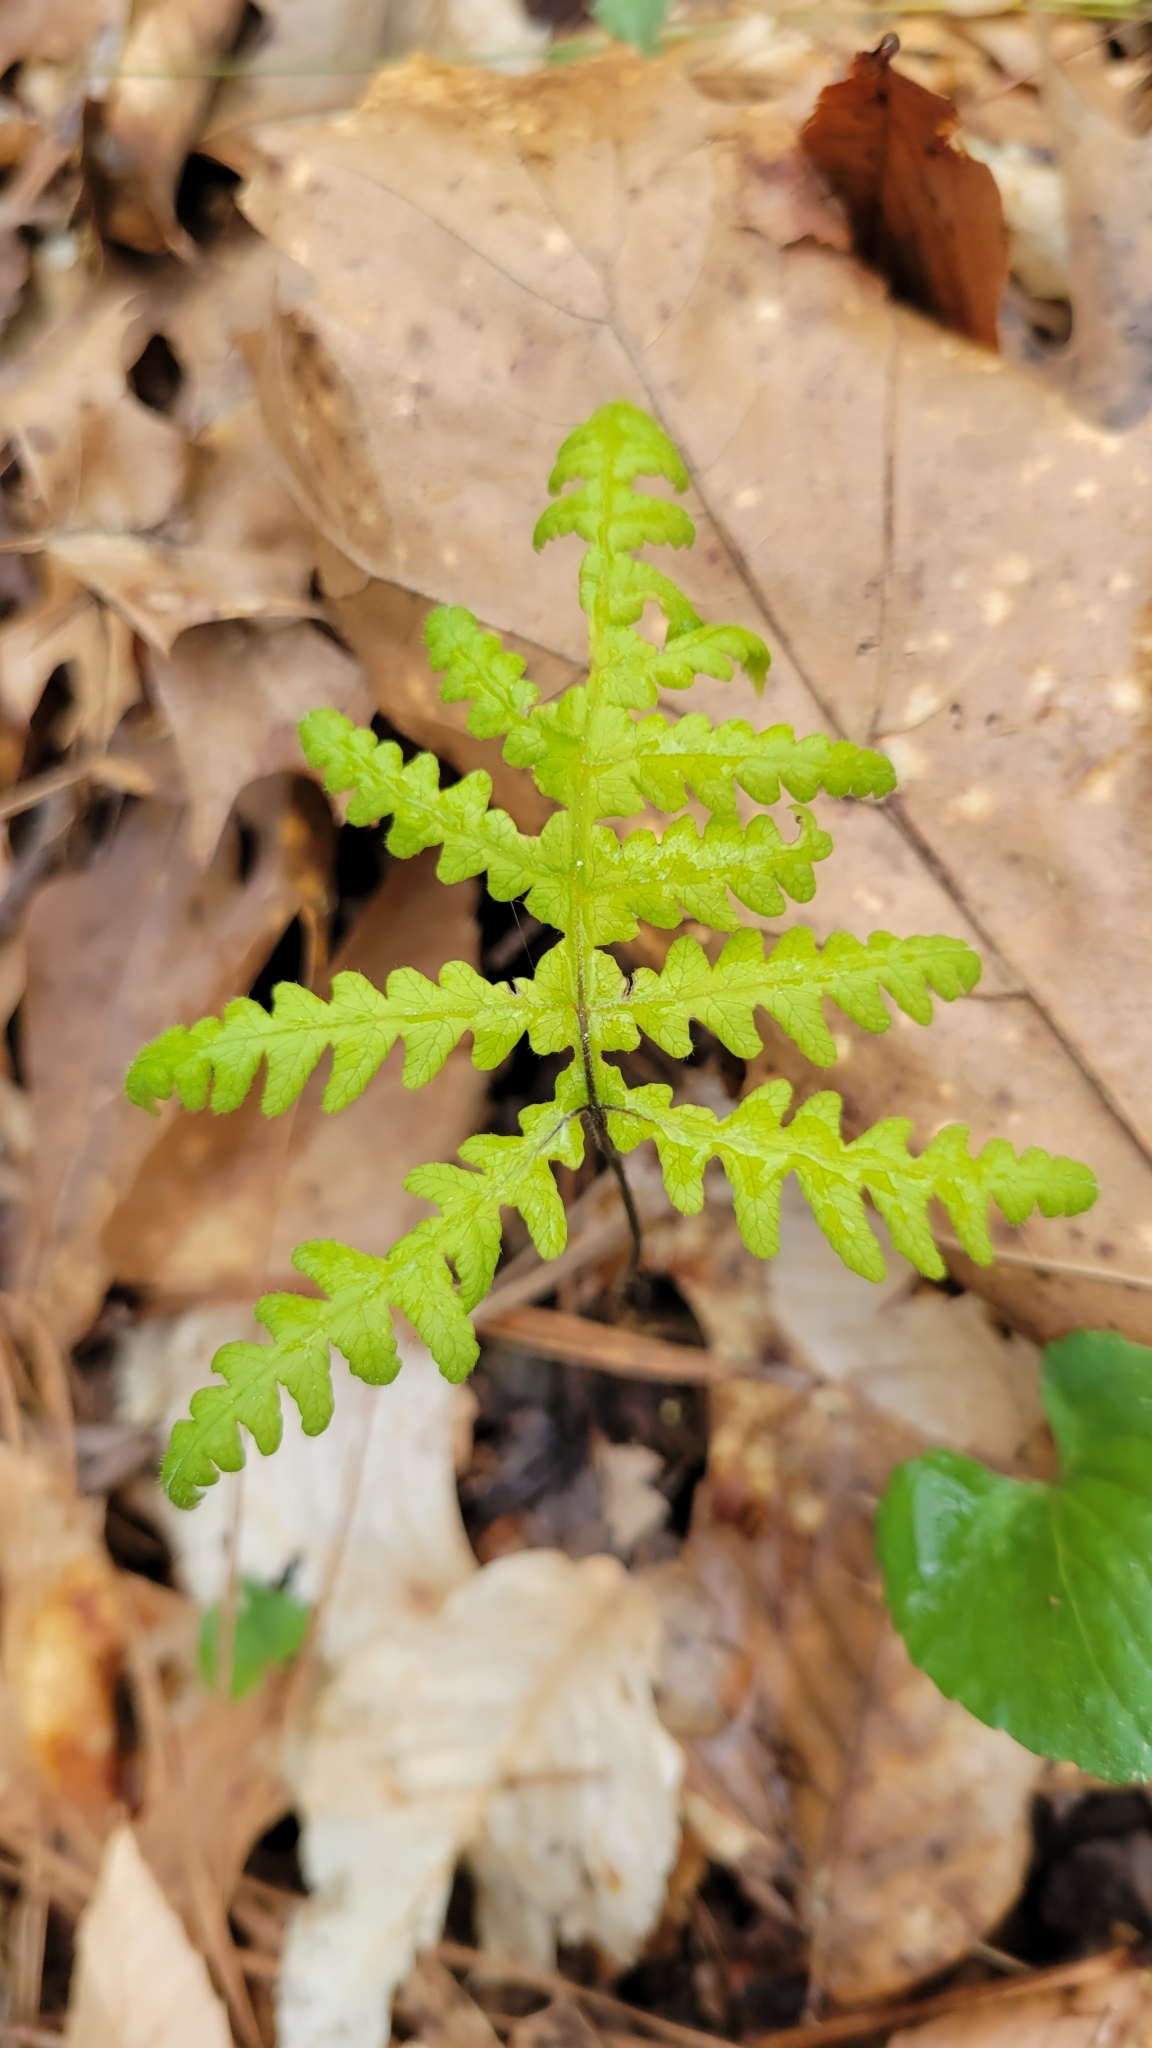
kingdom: Plantae
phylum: Tracheophyta
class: Polypodiopsida
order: Polypodiales
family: Thelypteridaceae
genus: Phegopteris
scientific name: Phegopteris hexagonoptera
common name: Broad beech fern
